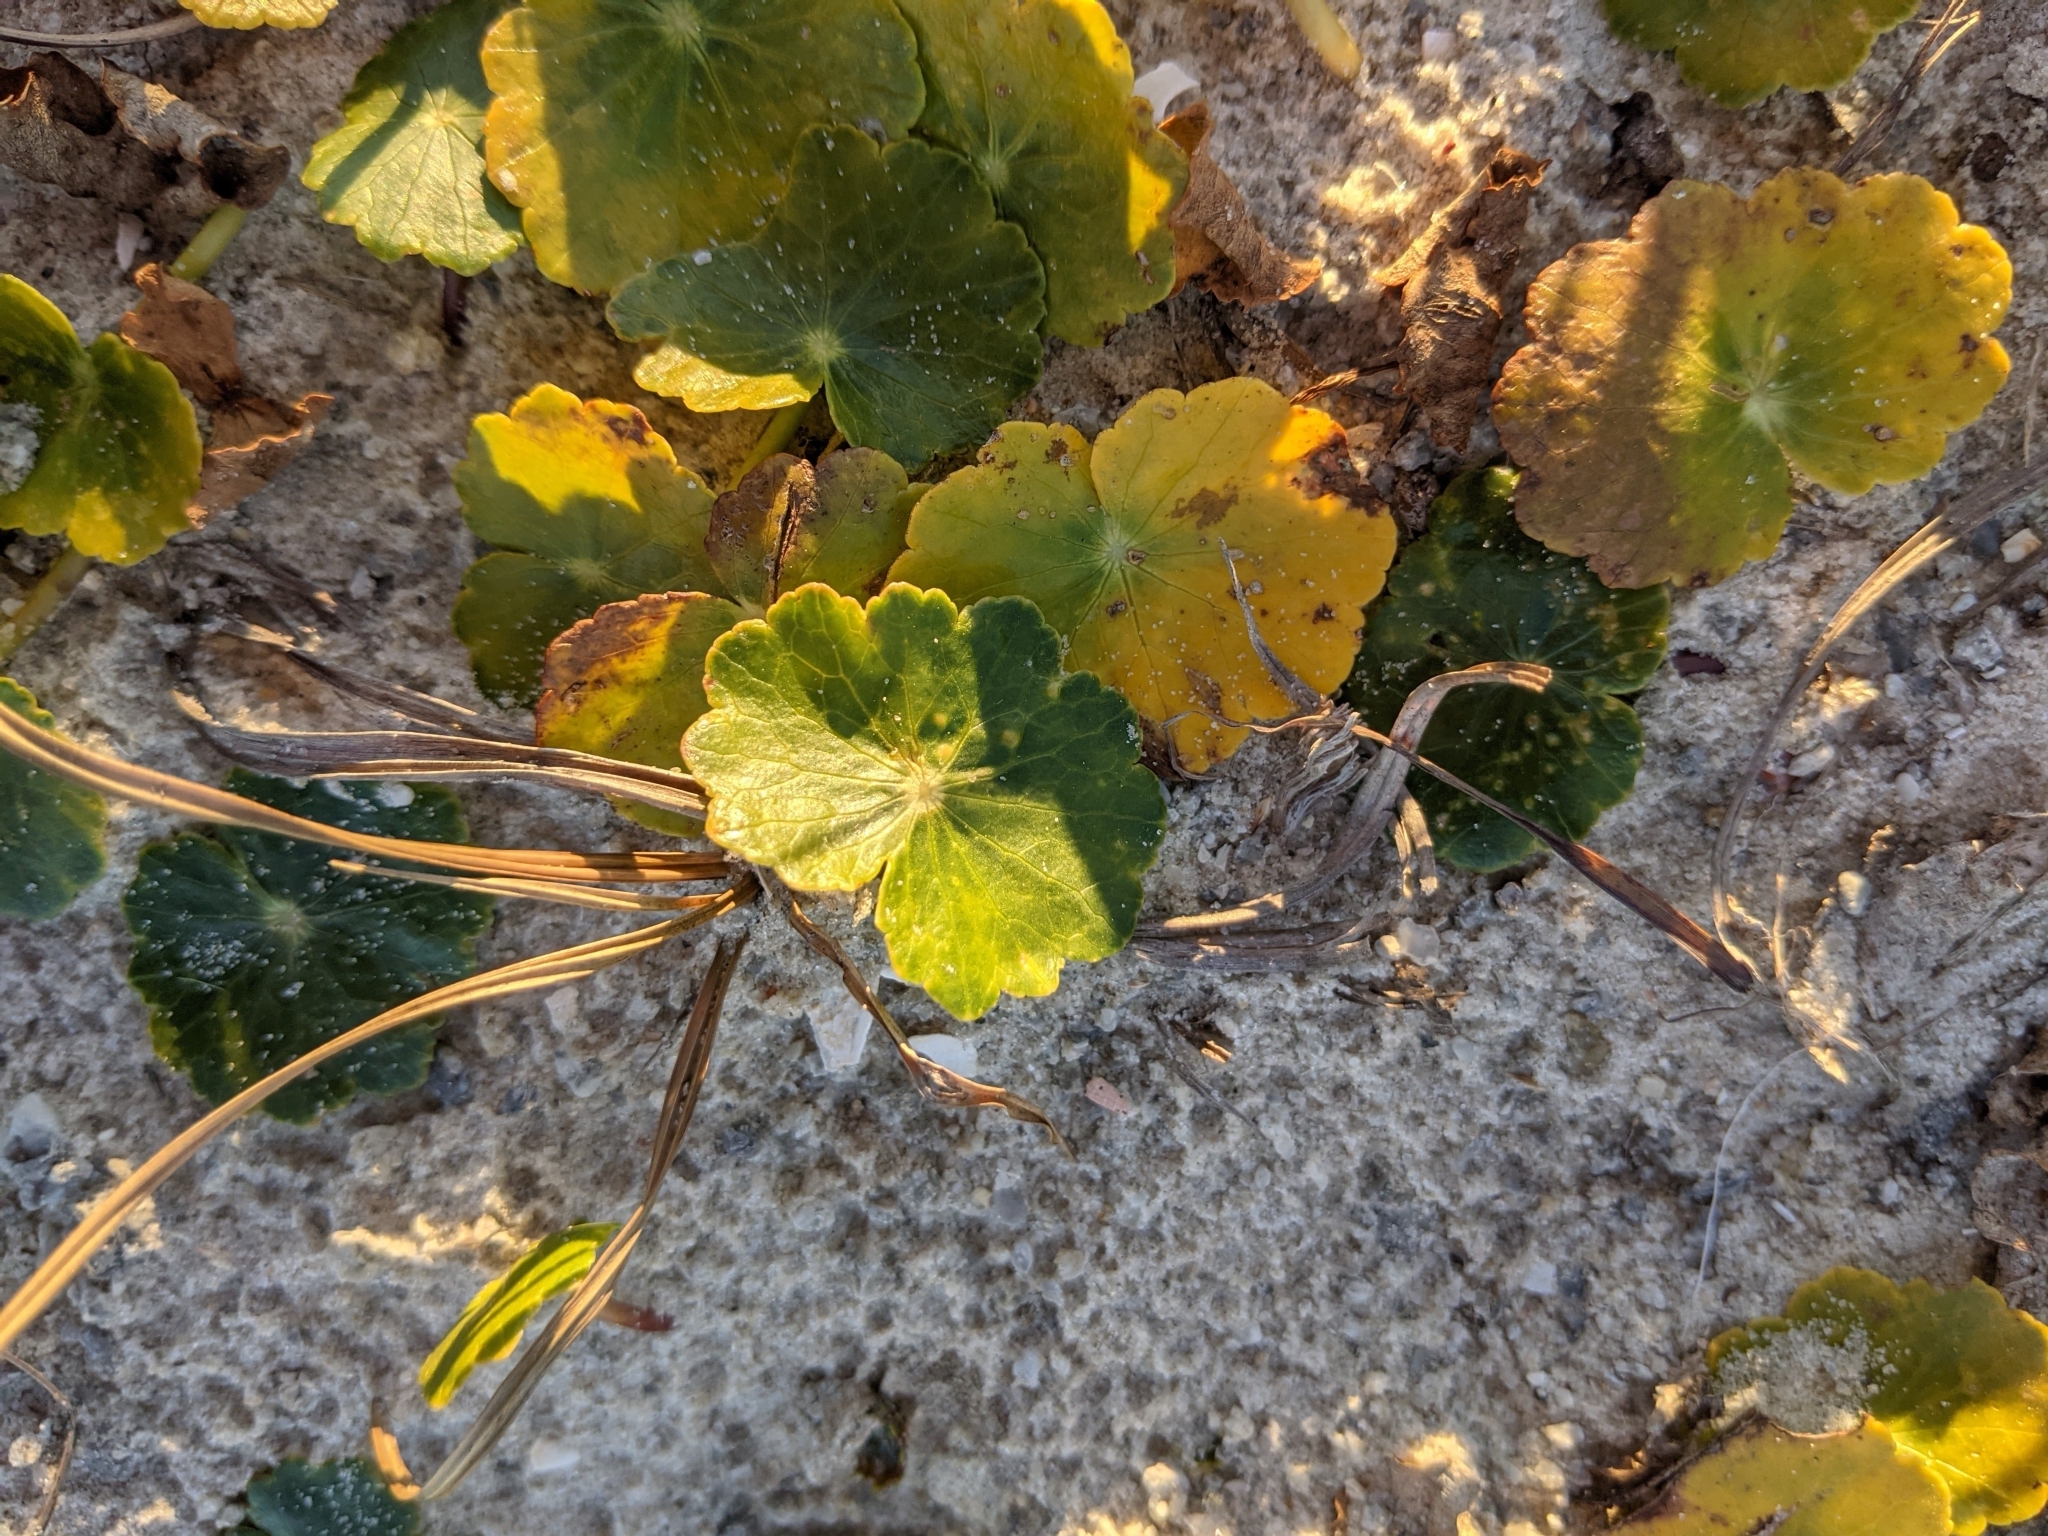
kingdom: Plantae
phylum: Tracheophyta
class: Magnoliopsida
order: Apiales
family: Araliaceae
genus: Hydrocotyle
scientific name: Hydrocotyle bonariensis
